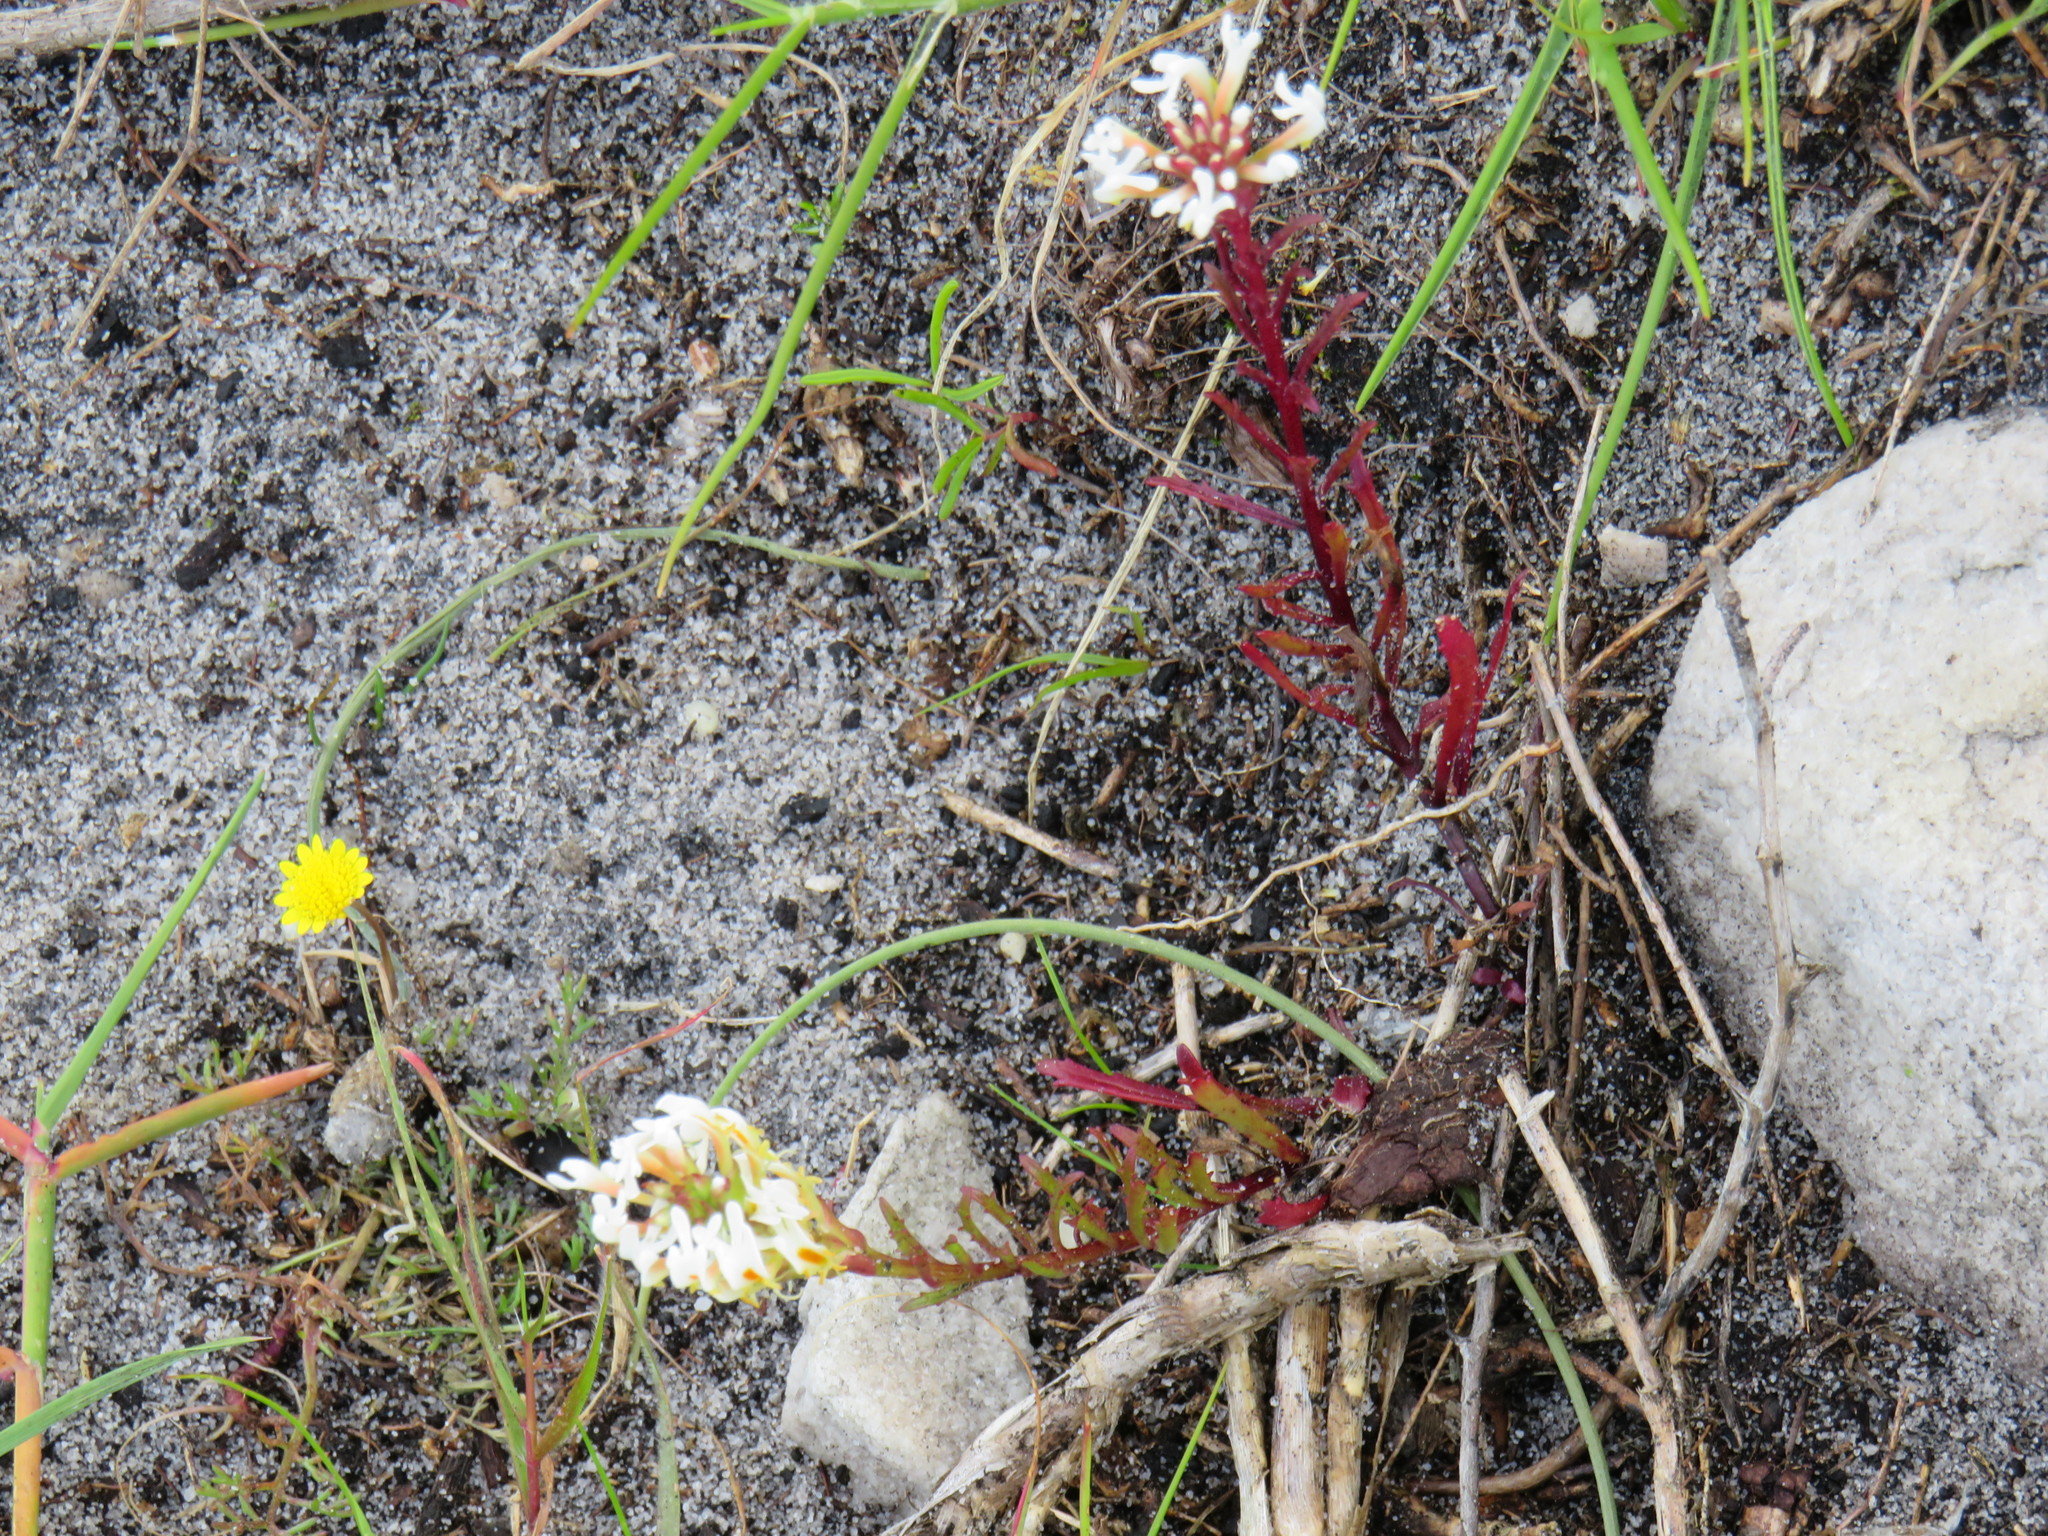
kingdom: Plantae
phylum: Tracheophyta
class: Magnoliopsida
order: Lamiales
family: Scrophulariaceae
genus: Hebenstretia
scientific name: Hebenstretia repens
